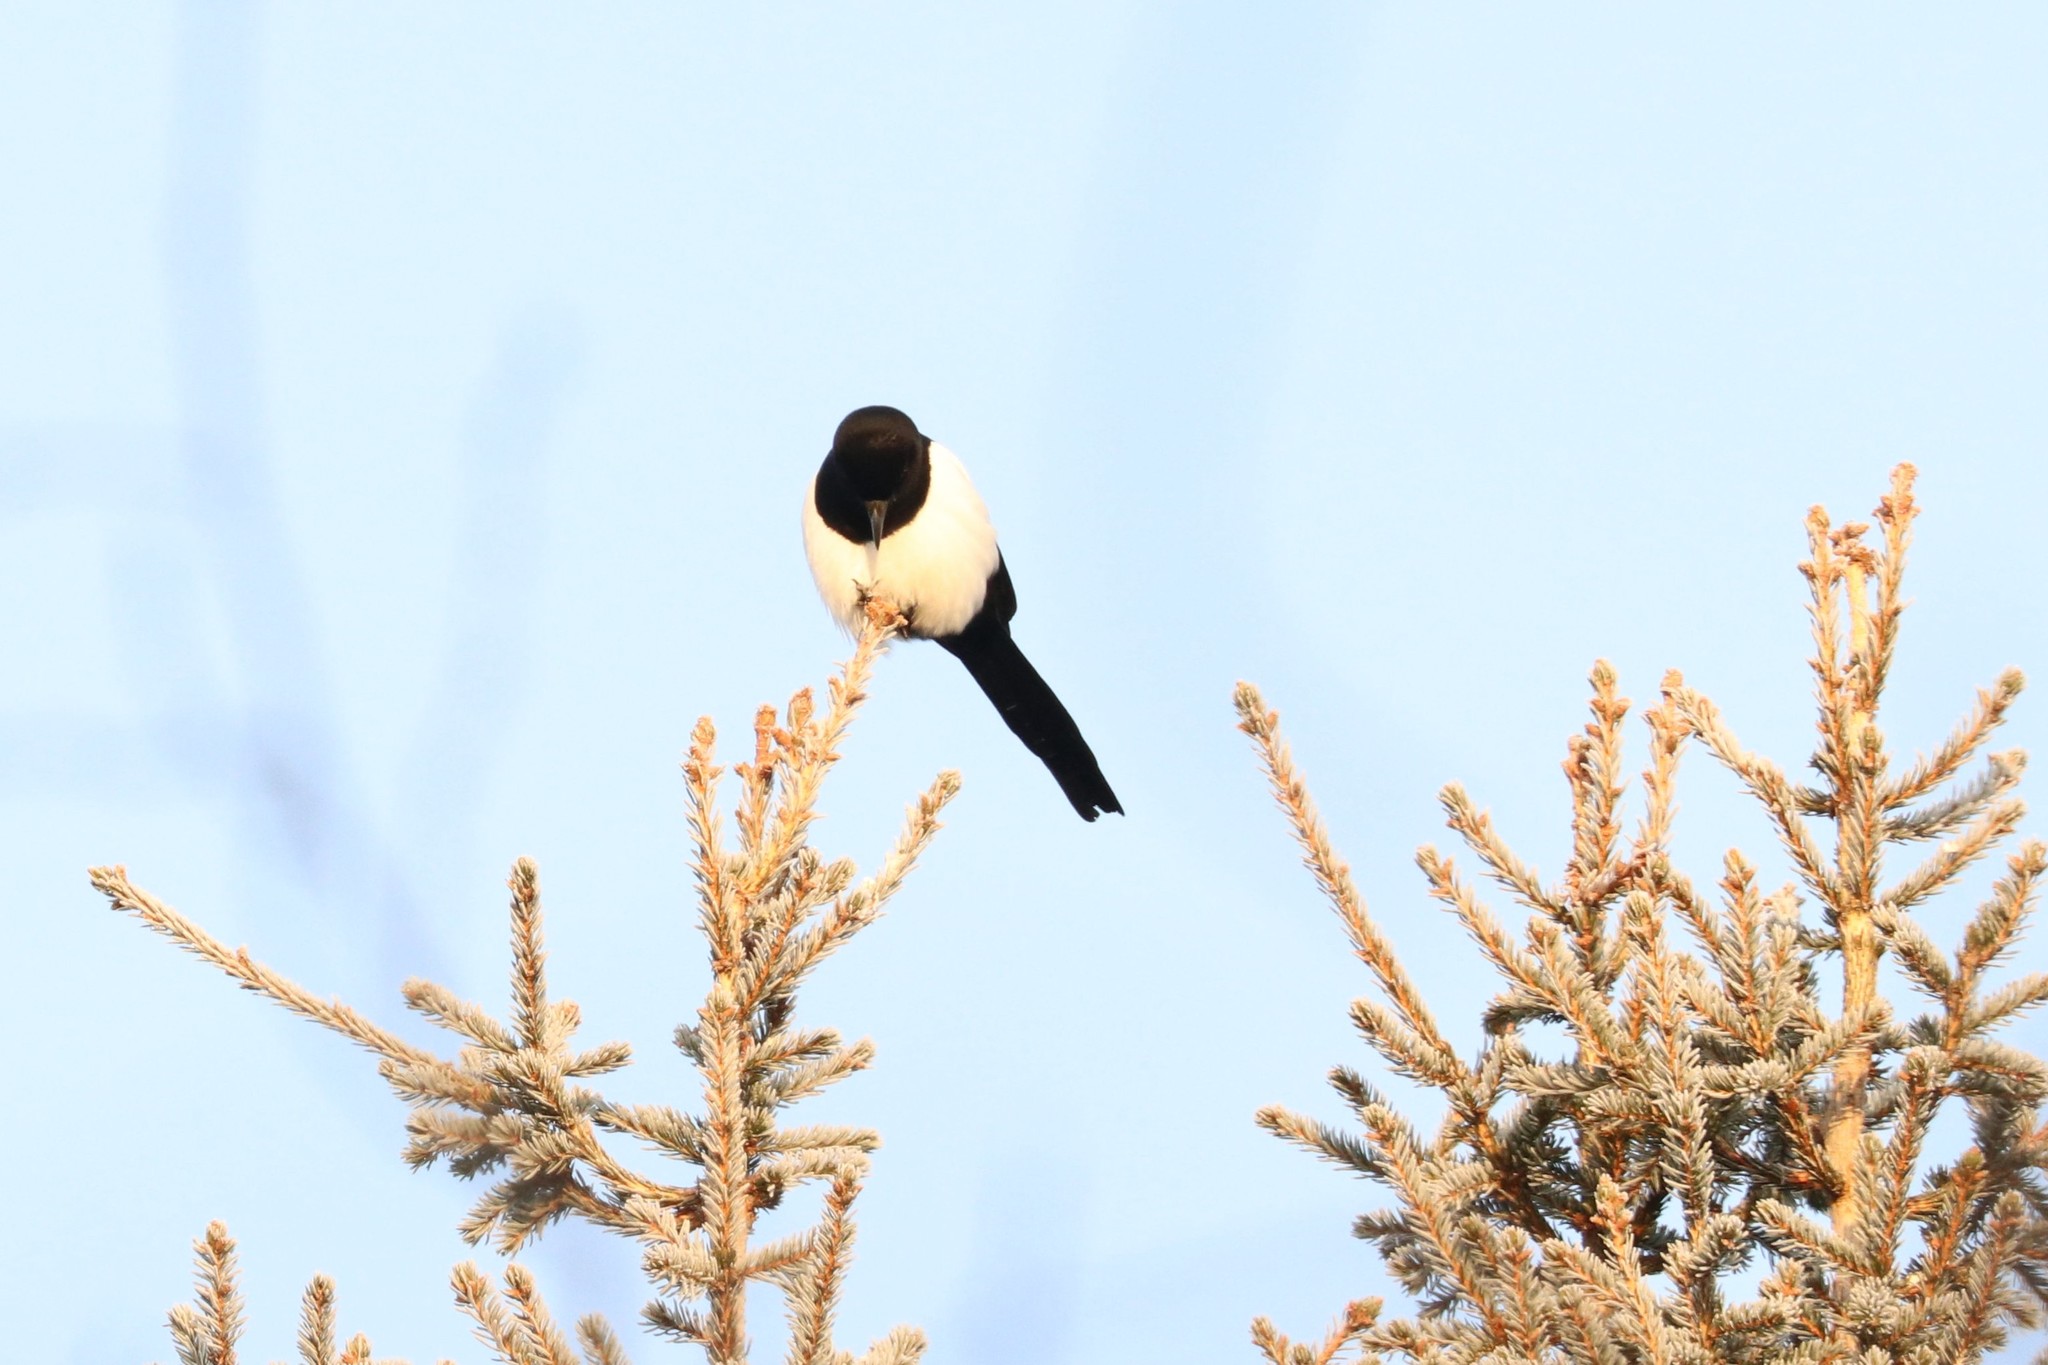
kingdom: Animalia
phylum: Chordata
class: Aves
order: Passeriformes
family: Corvidae
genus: Pica
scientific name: Pica pica
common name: Eurasian magpie
